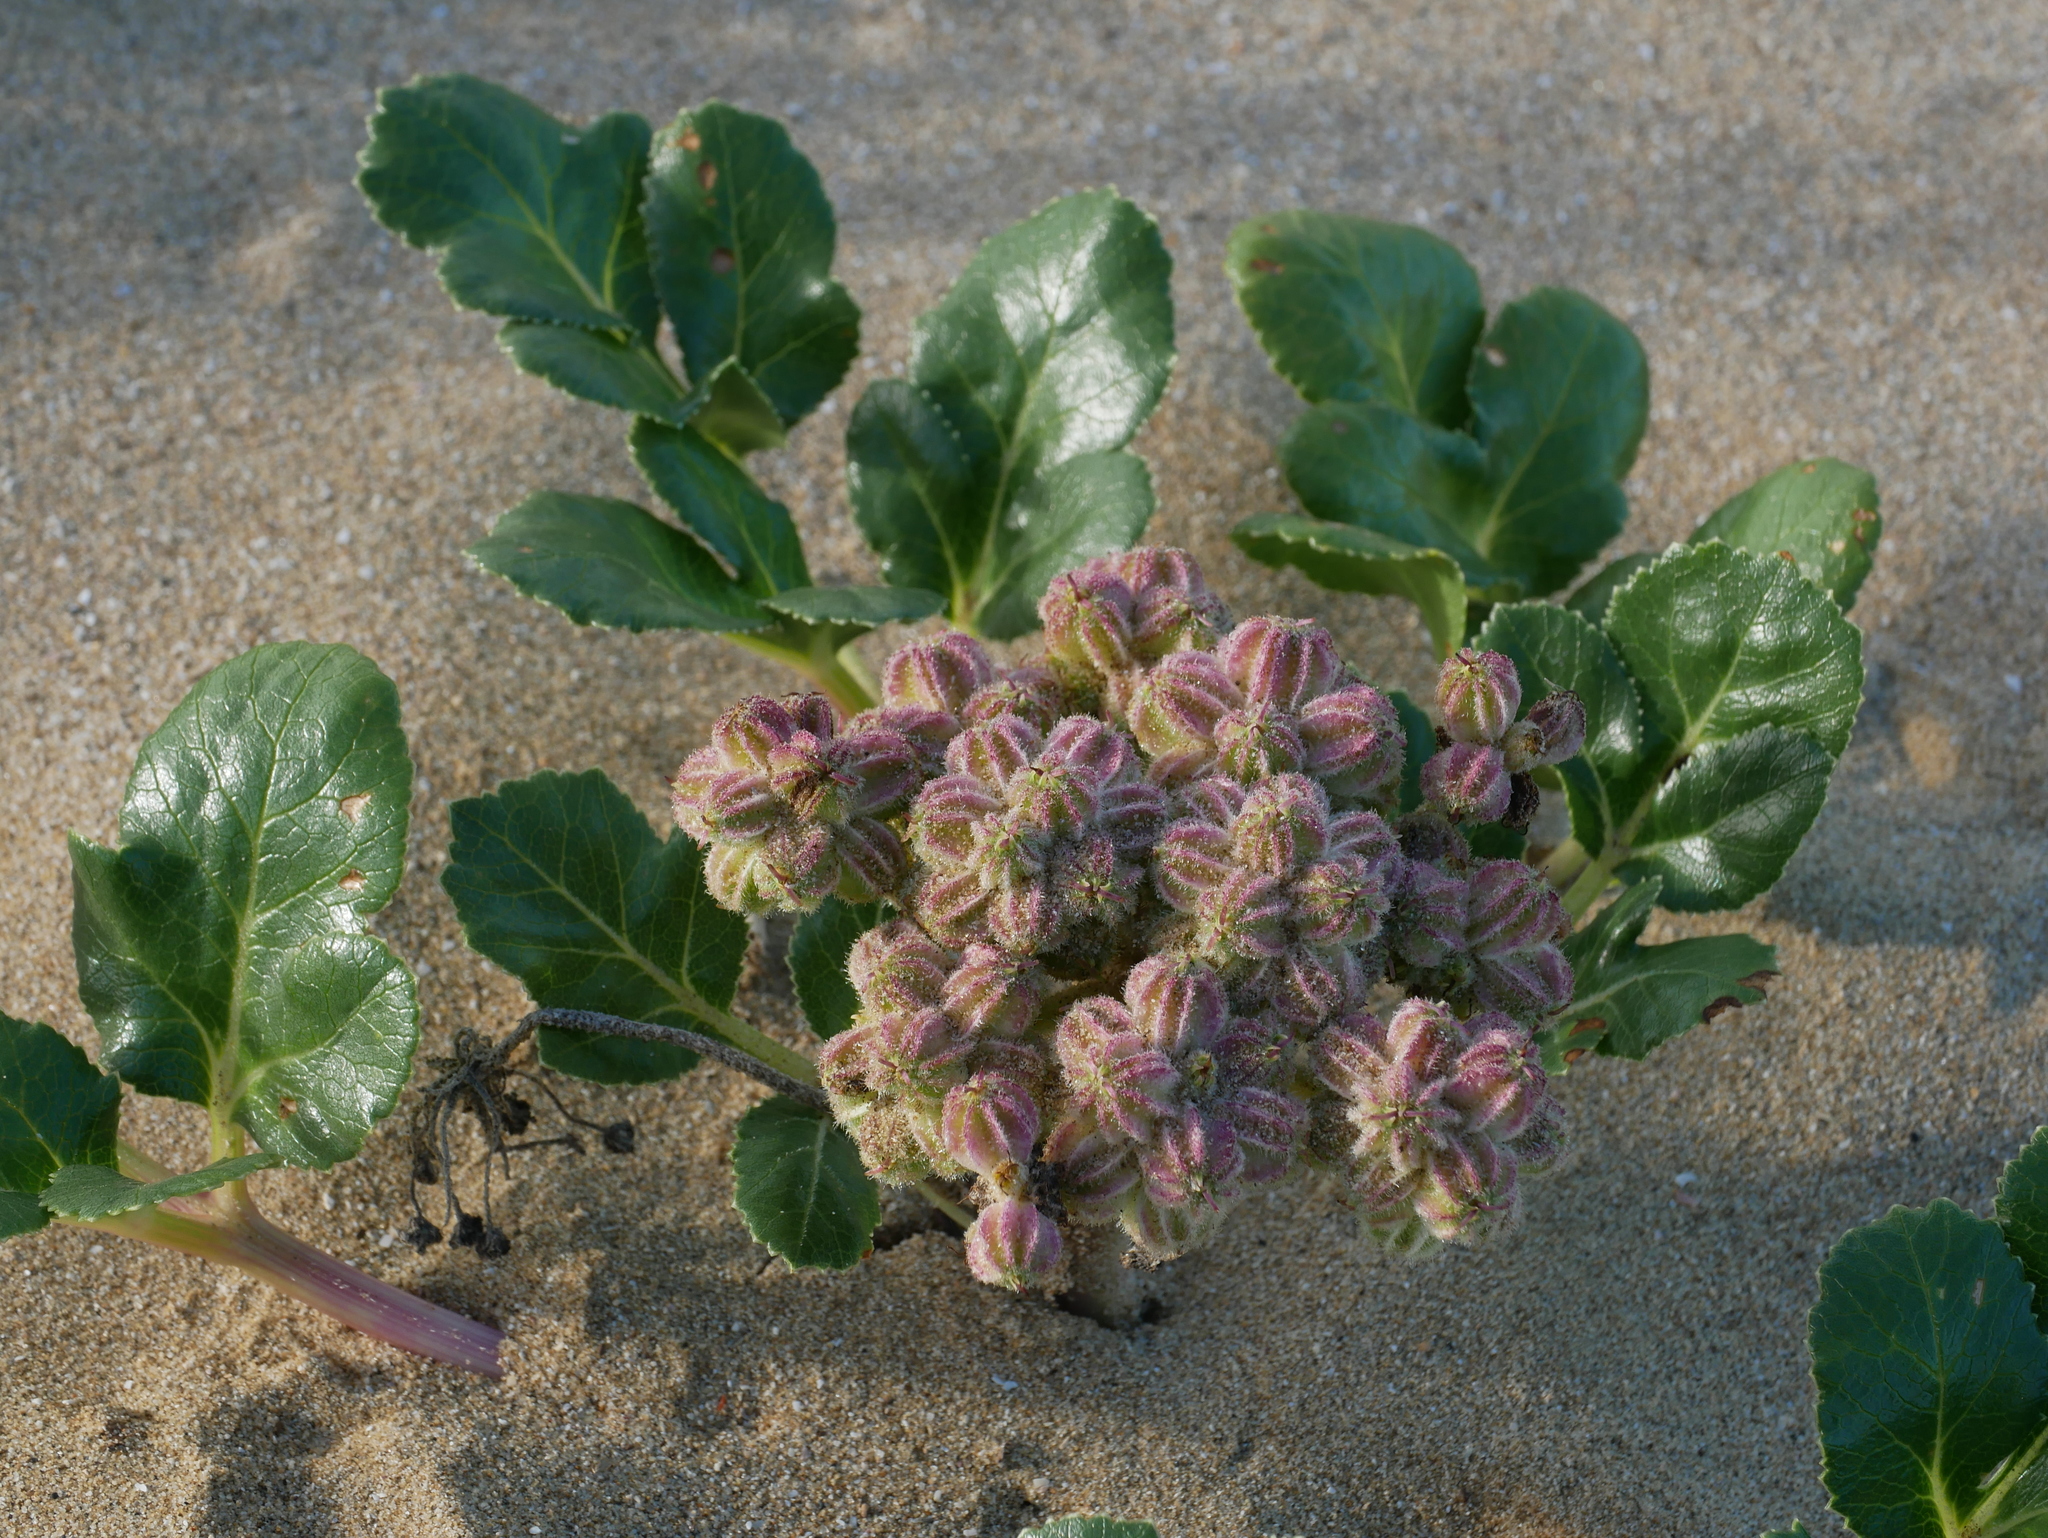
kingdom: Plantae
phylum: Tracheophyta
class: Magnoliopsida
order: Apiales
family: Apiaceae
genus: Glehnia
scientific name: Glehnia littoralis
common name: Beach silvertop
